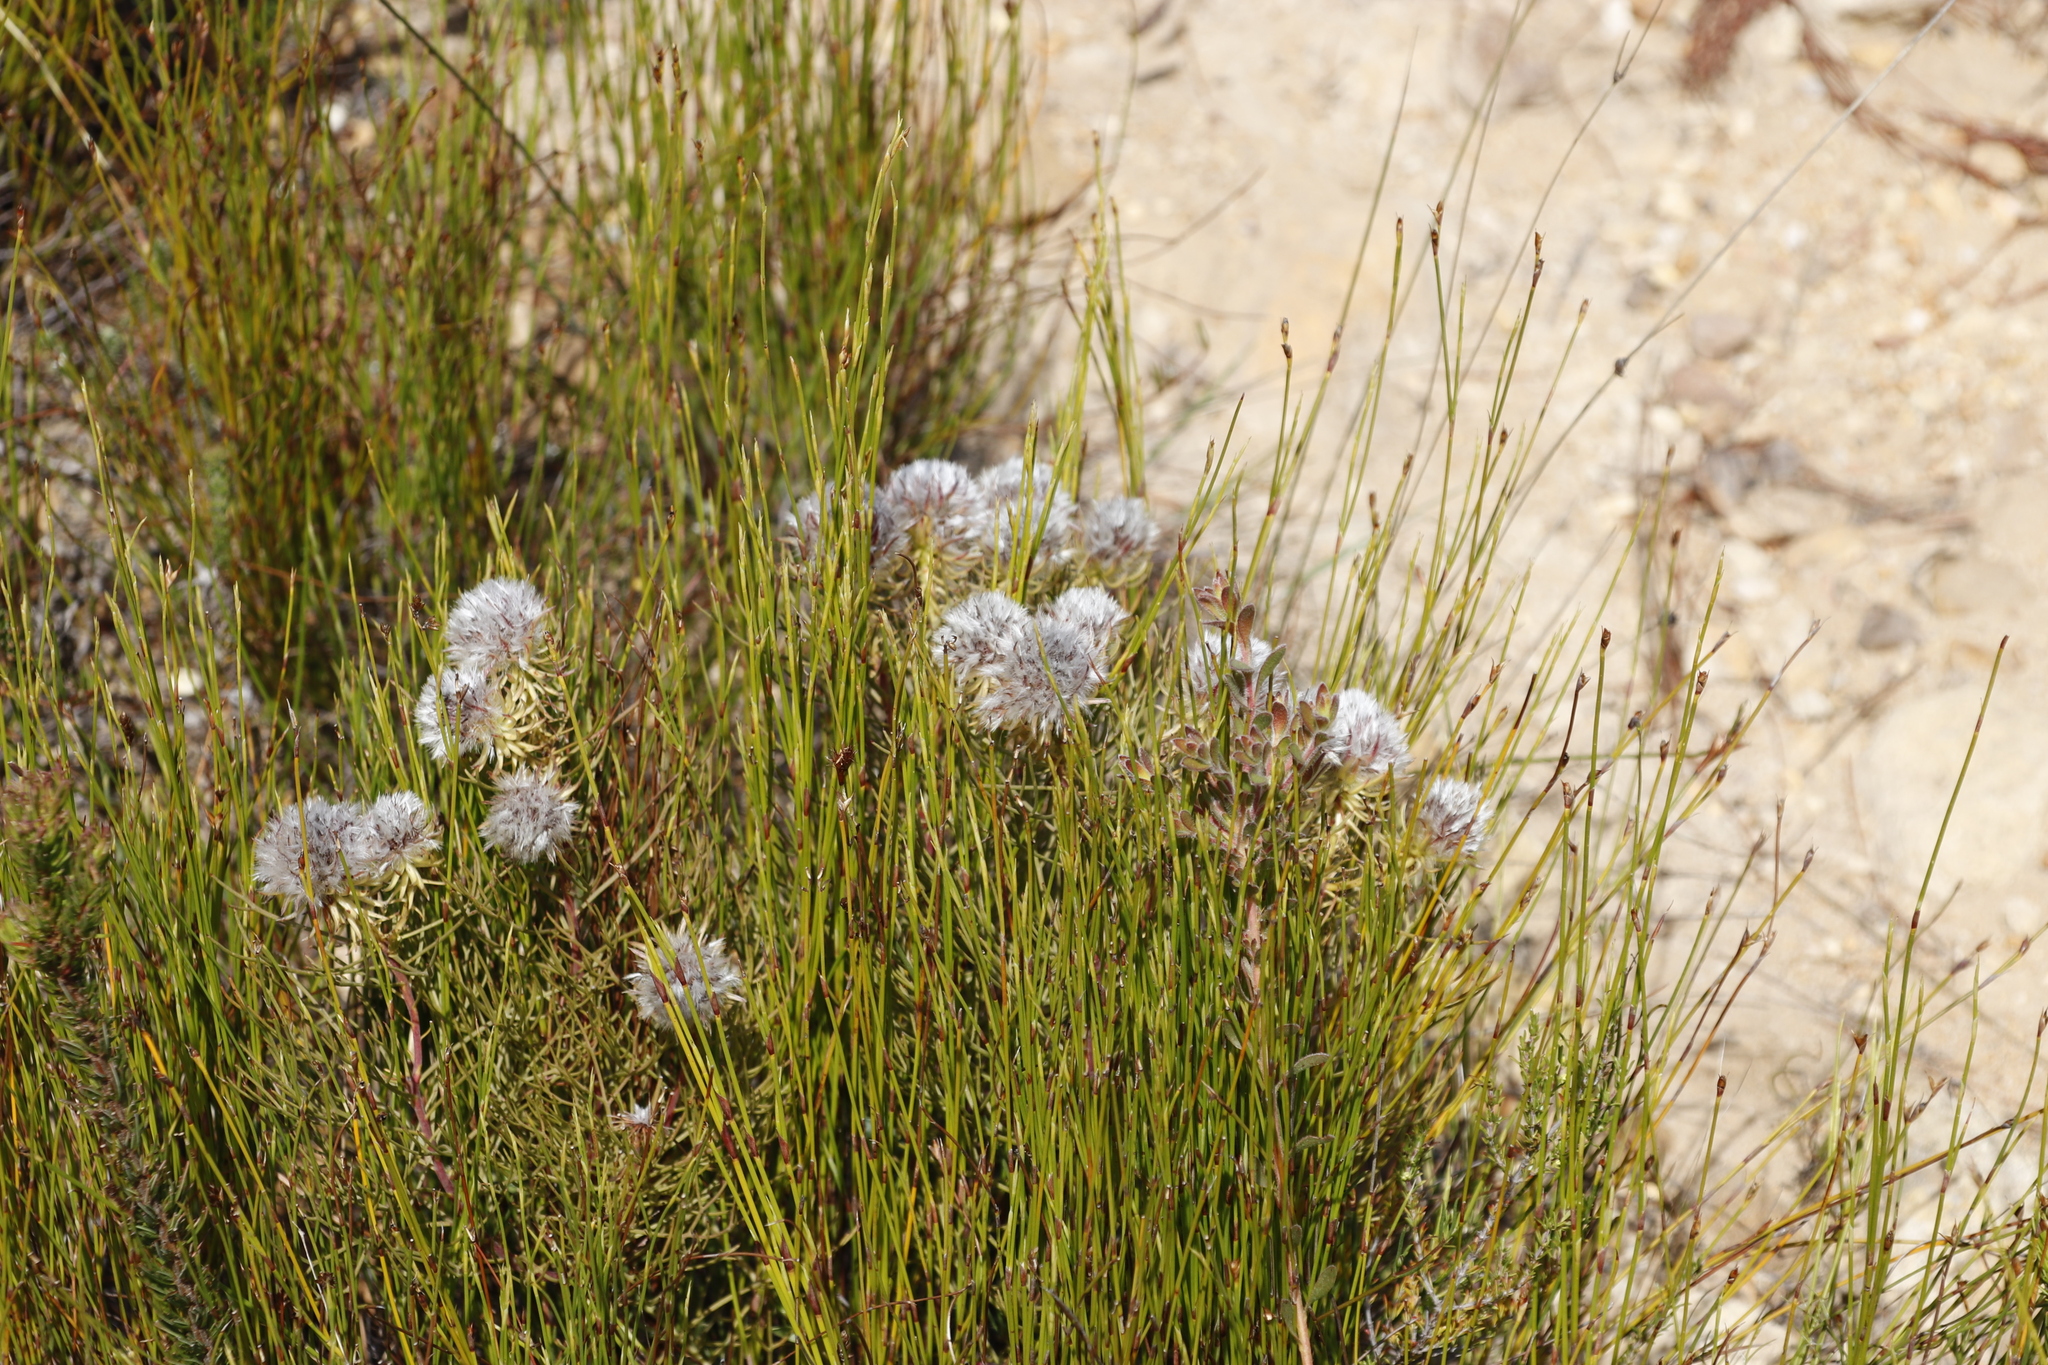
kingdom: Plantae
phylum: Tracheophyta
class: Magnoliopsida
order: Proteales
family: Proteaceae
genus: Serruria
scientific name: Serruria phylicoides
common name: Bearded spiderhead
